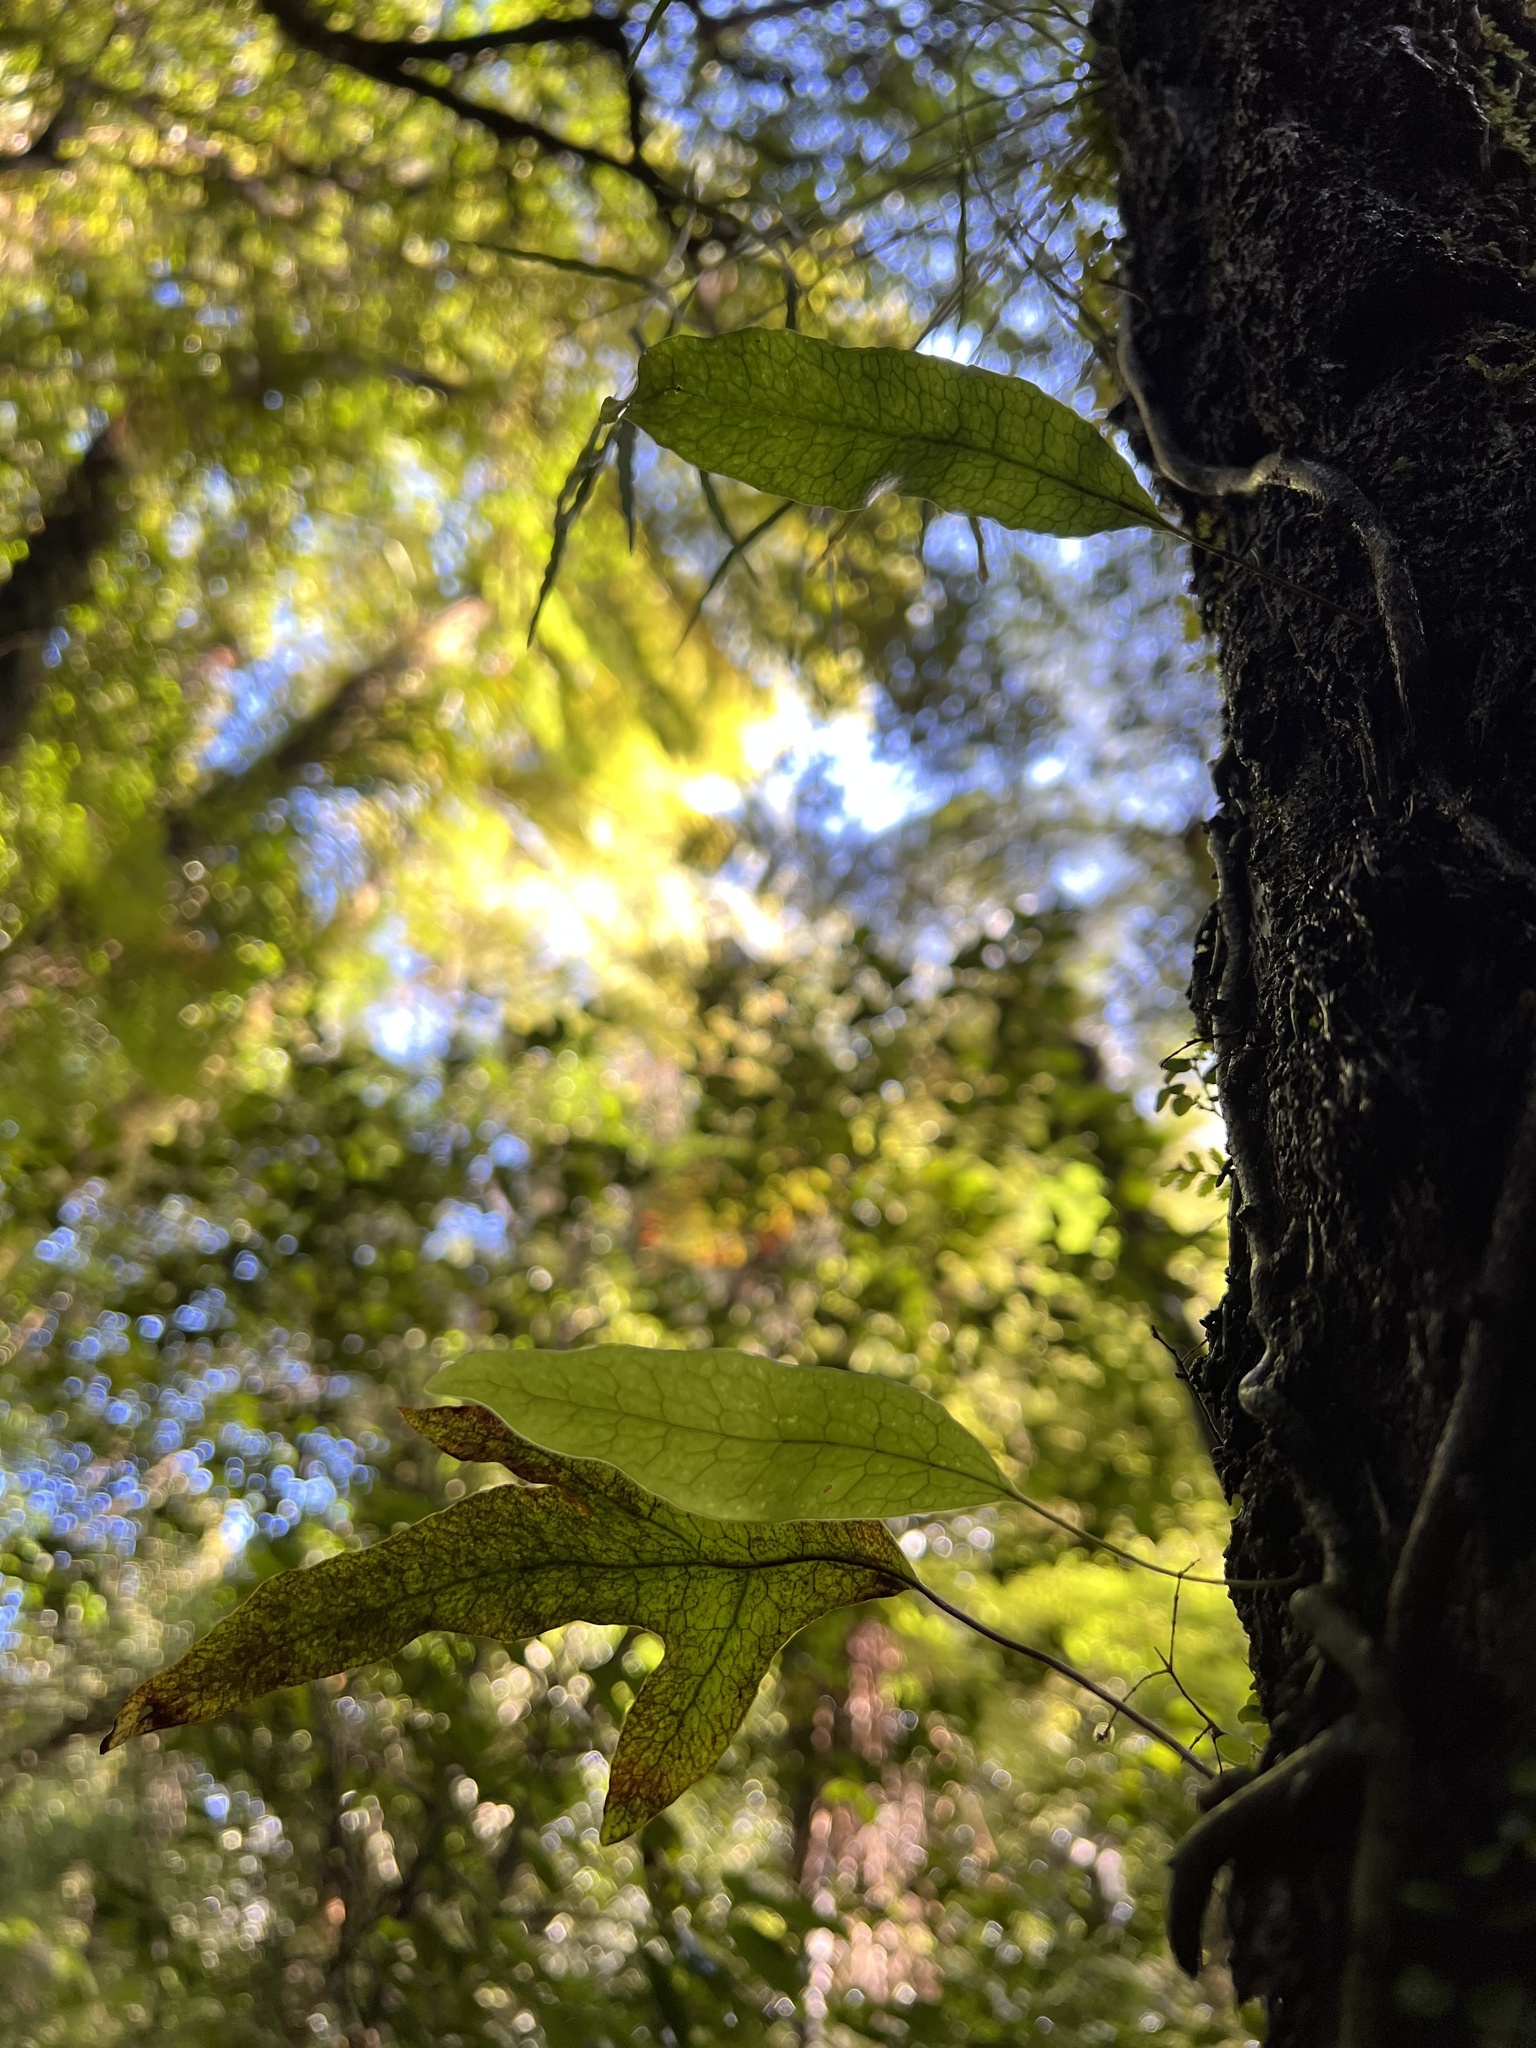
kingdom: Plantae
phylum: Tracheophyta
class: Polypodiopsida
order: Polypodiales
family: Polypodiaceae
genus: Lecanopteris
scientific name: Lecanopteris pustulata
